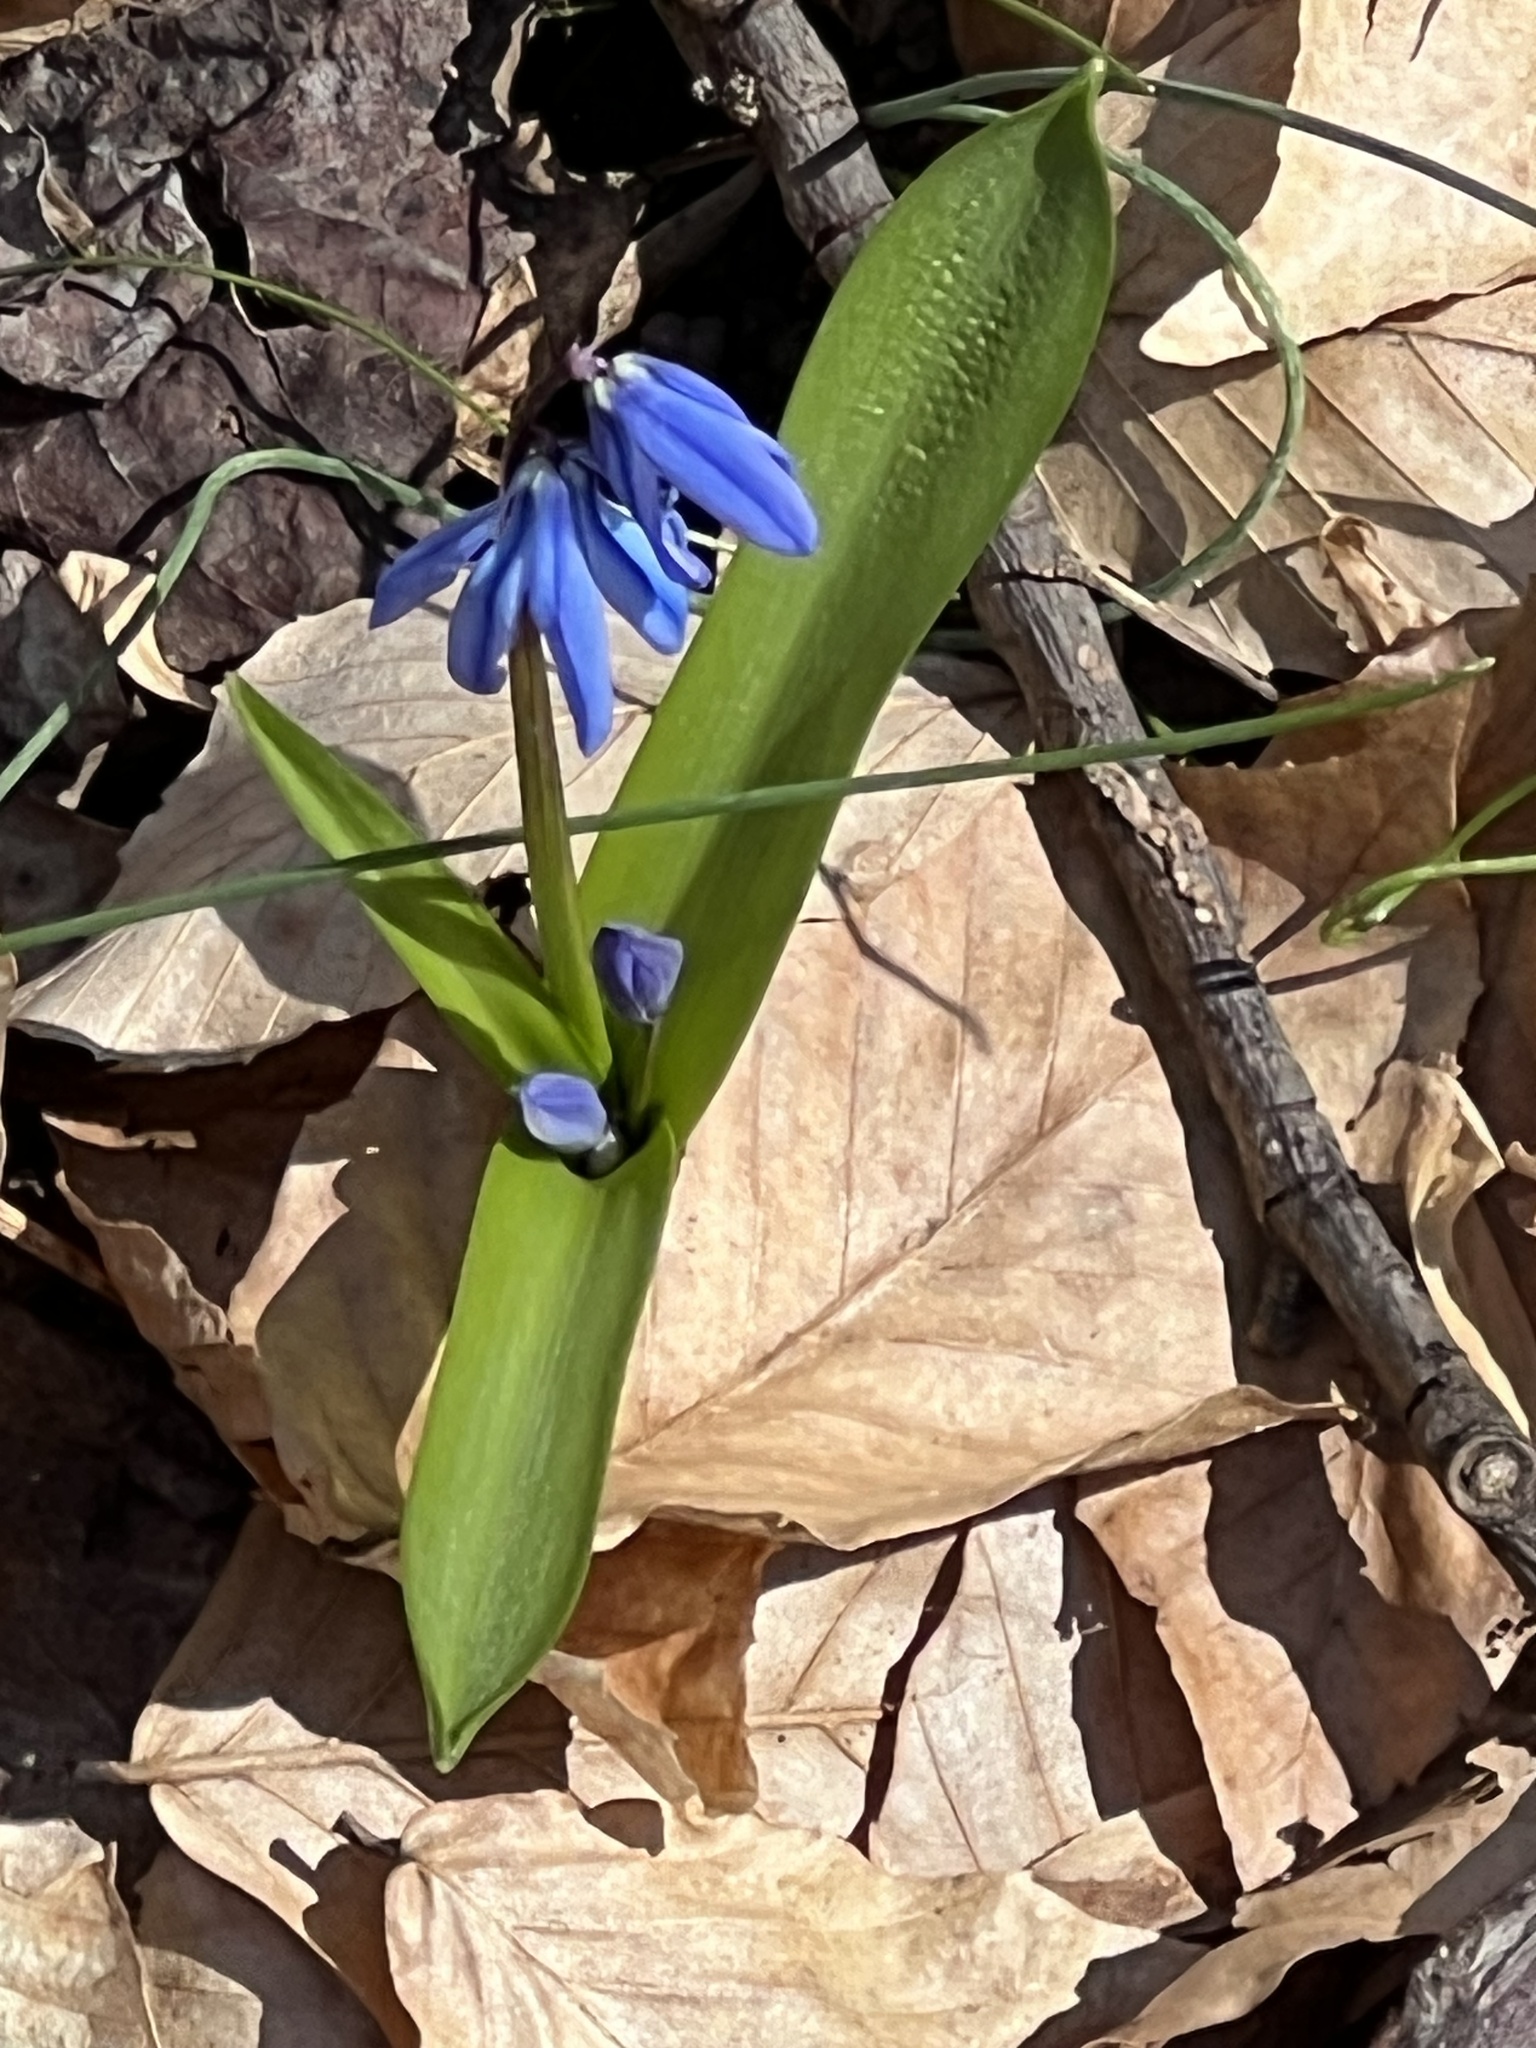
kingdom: Plantae
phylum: Tracheophyta
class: Liliopsida
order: Asparagales
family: Asparagaceae
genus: Scilla
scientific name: Scilla siberica
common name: Siberian squill
